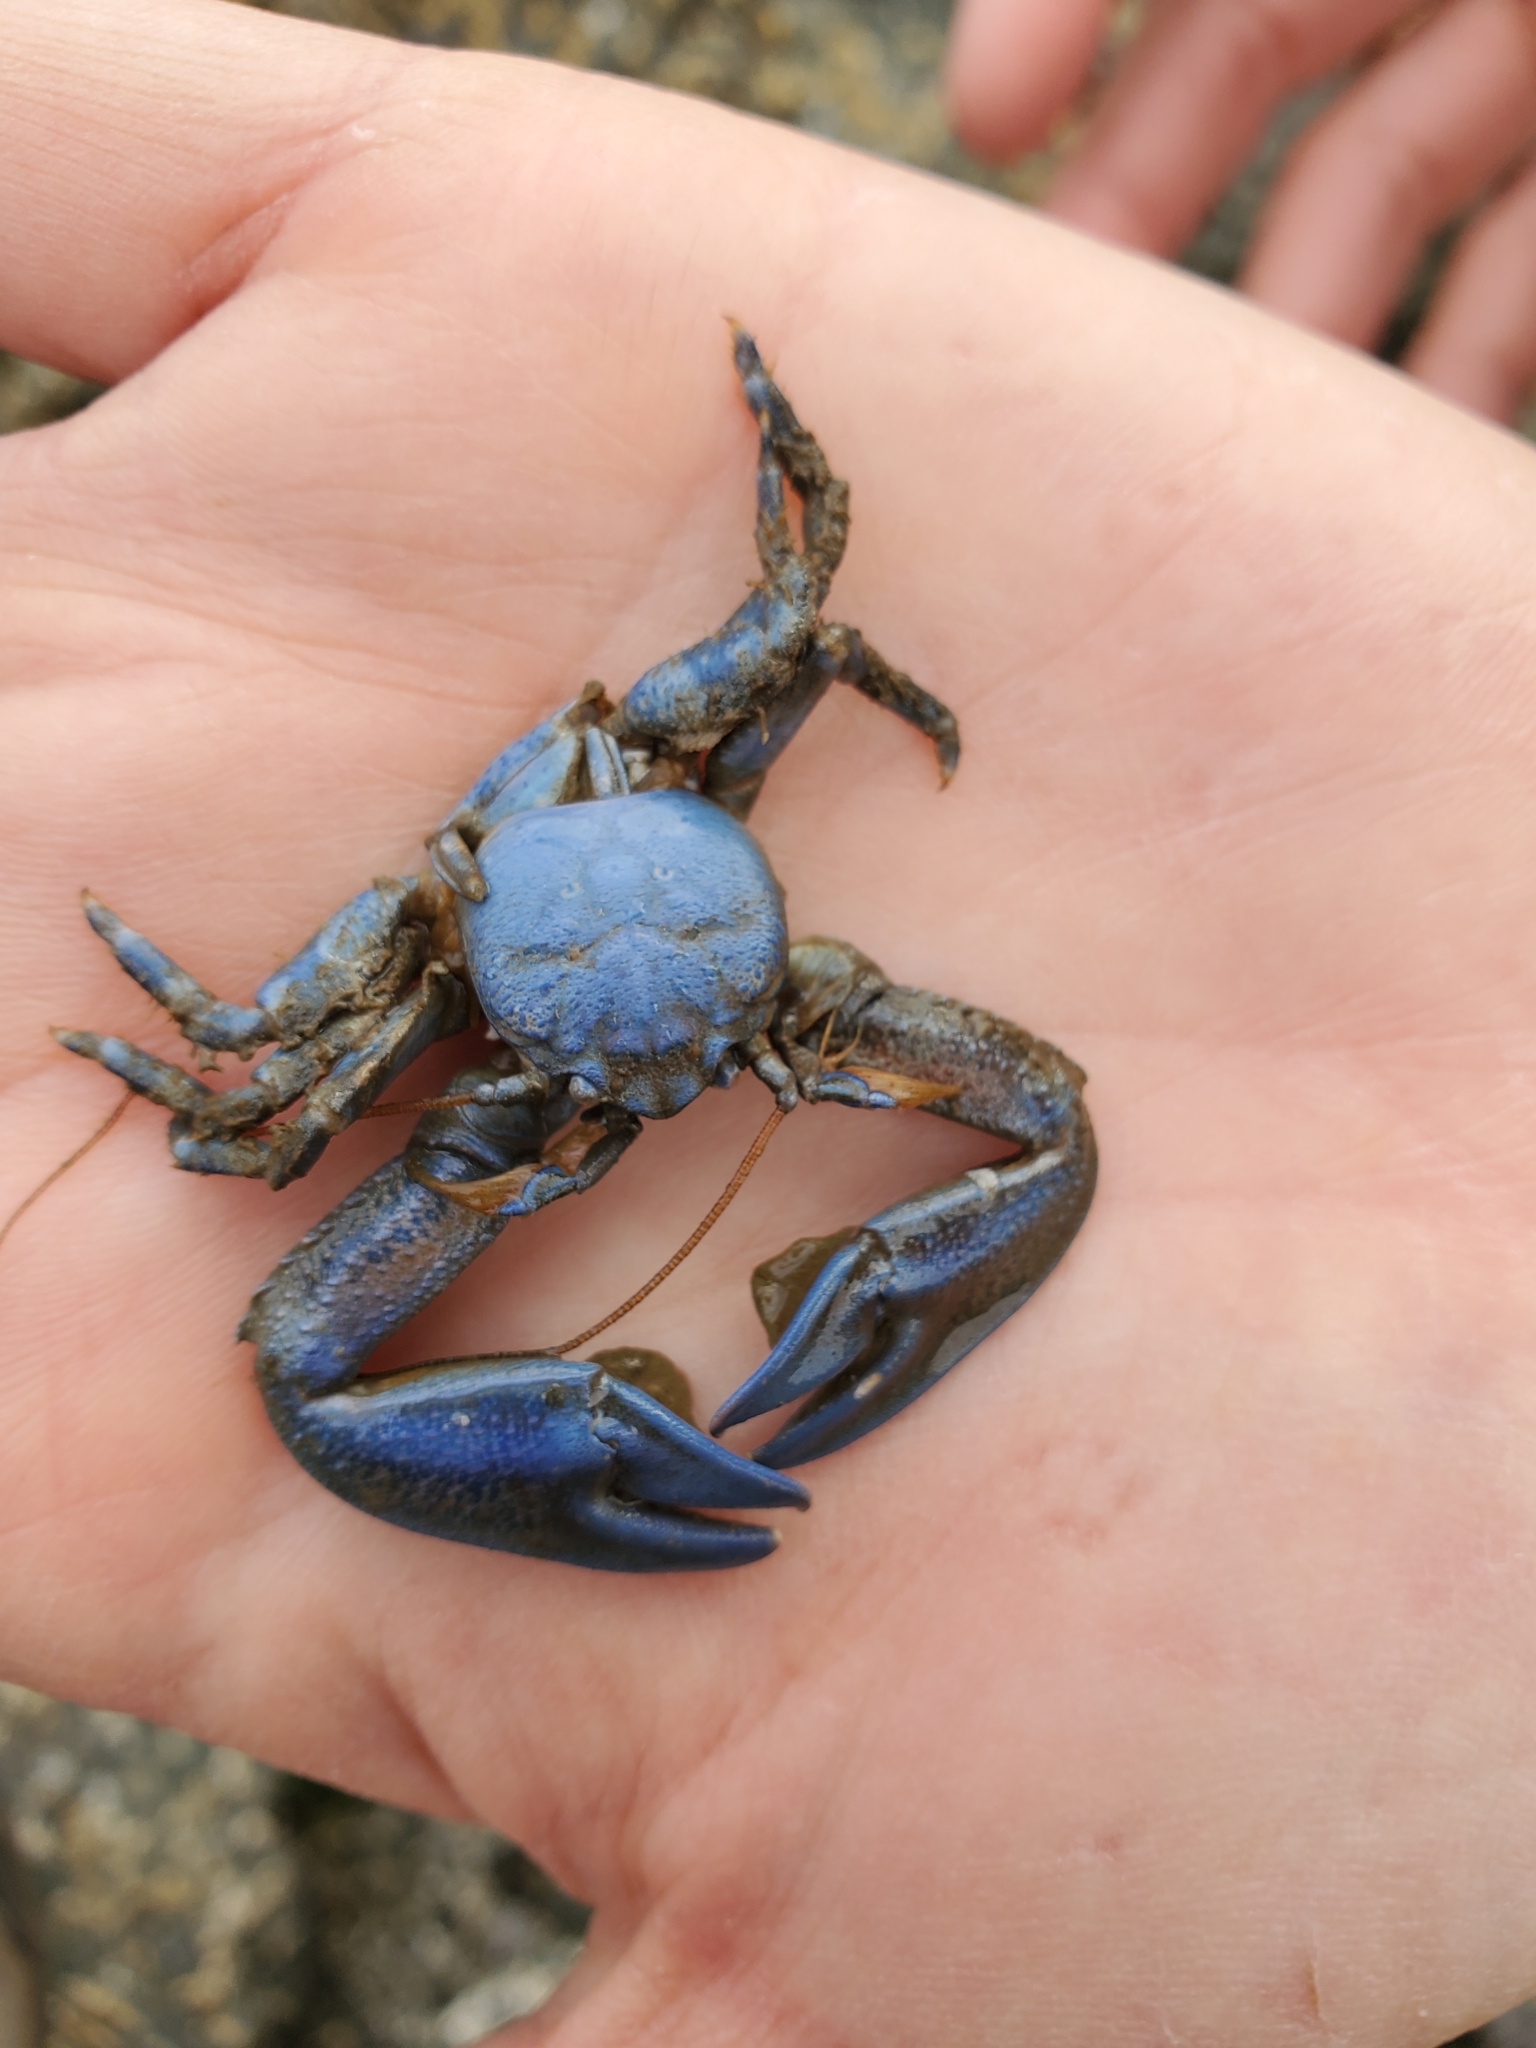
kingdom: Animalia
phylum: Arthropoda
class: Malacostraca
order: Decapoda
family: Porcellanidae
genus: Petrolisthes
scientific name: Petrolisthes eriomerus
